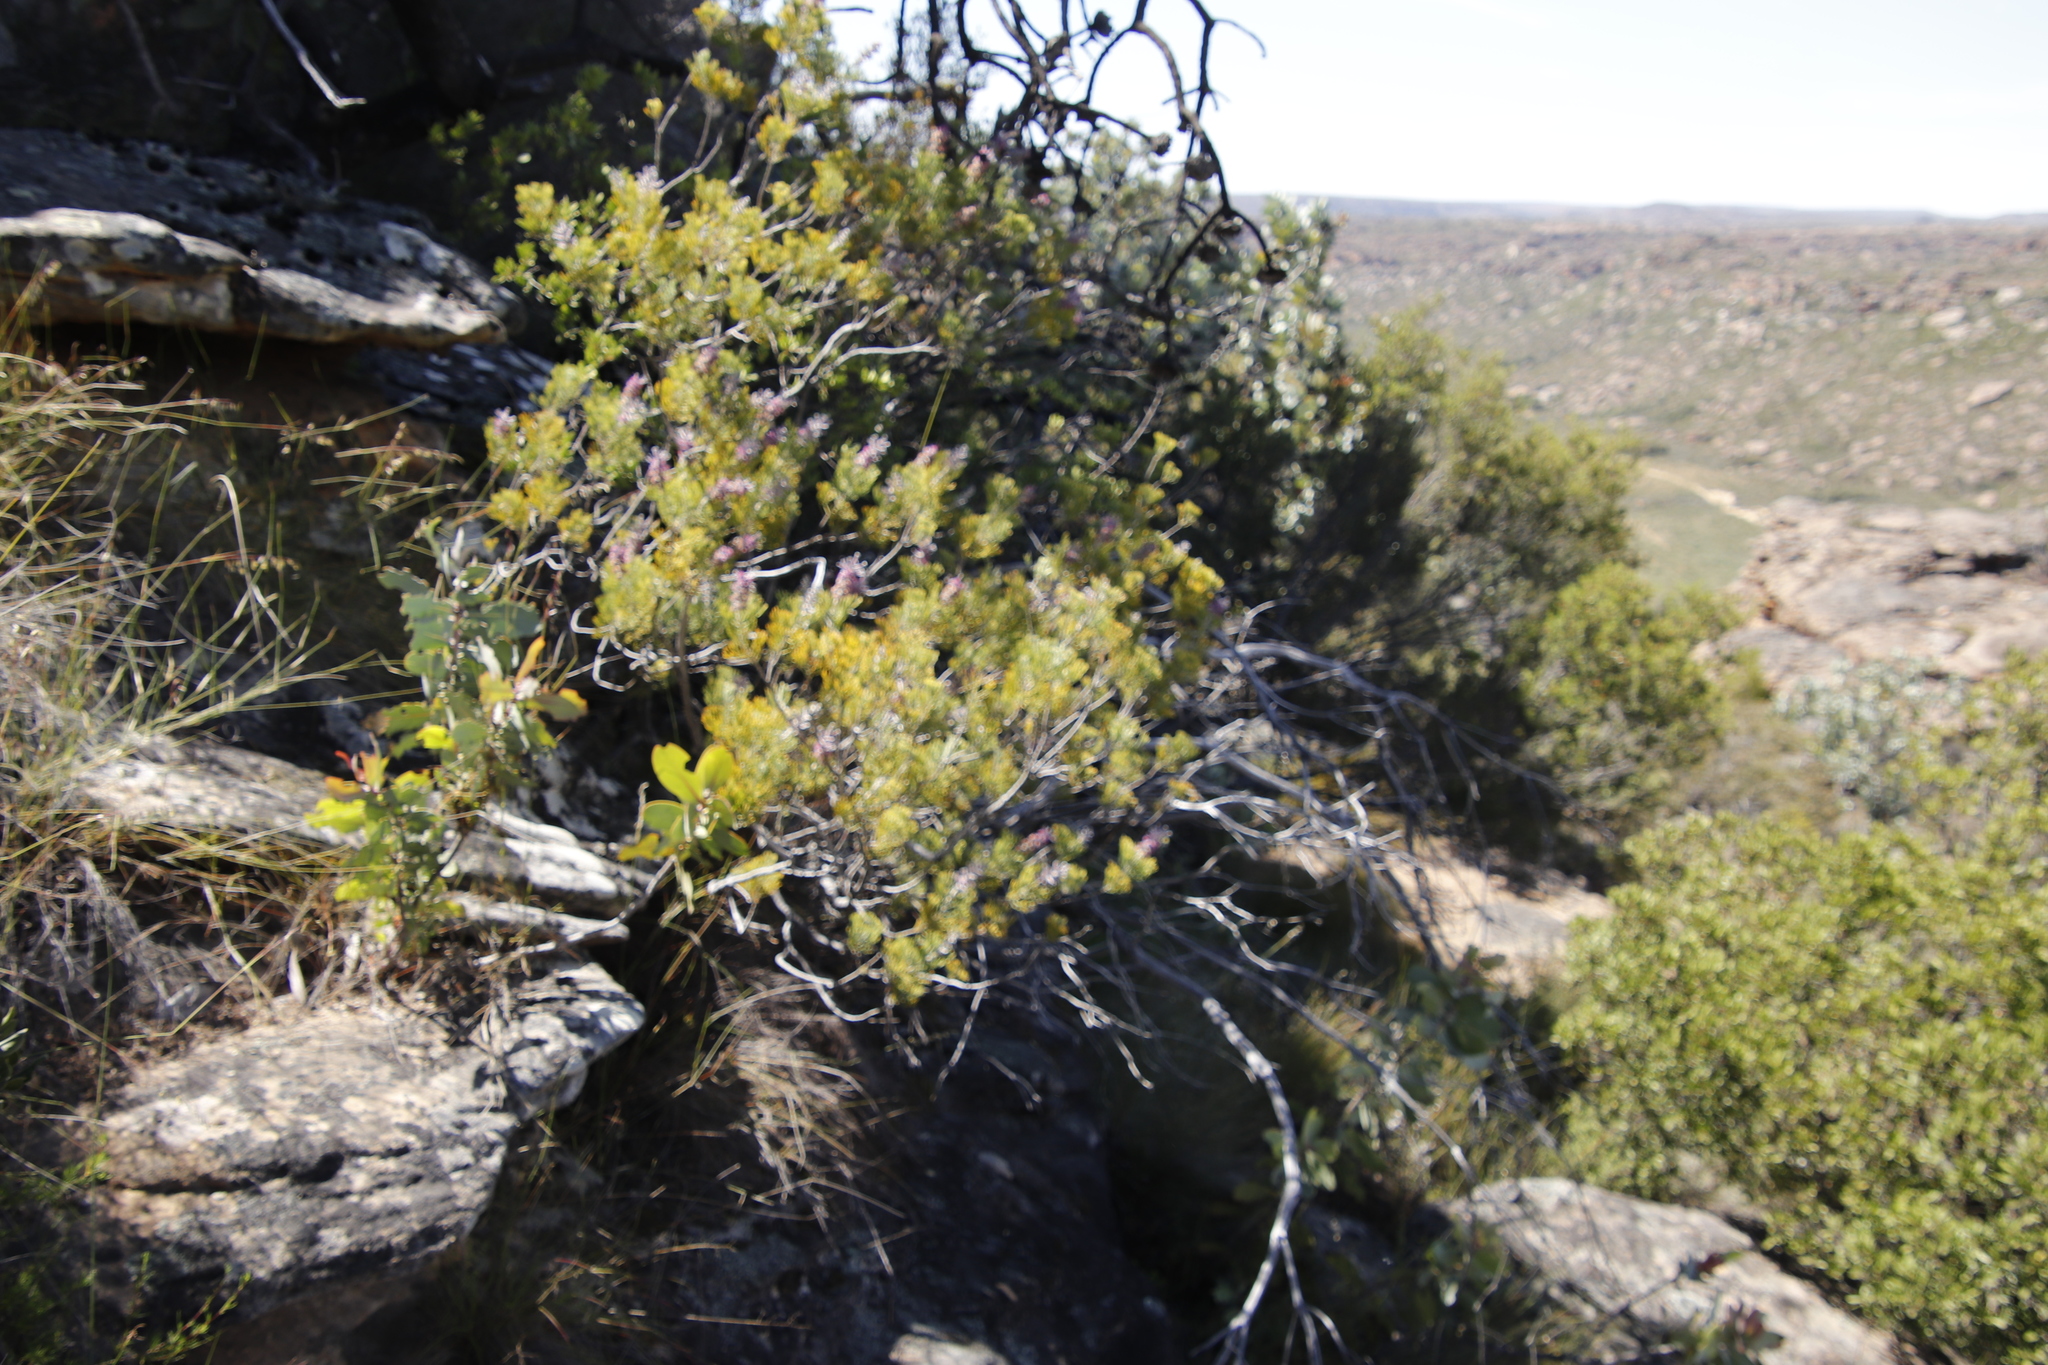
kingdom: Plantae
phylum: Tracheophyta
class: Magnoliopsida
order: Proteales
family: Proteaceae
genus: Paranomus
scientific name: Paranomus bracteolaris
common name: Bokkeveld tree sceptre
